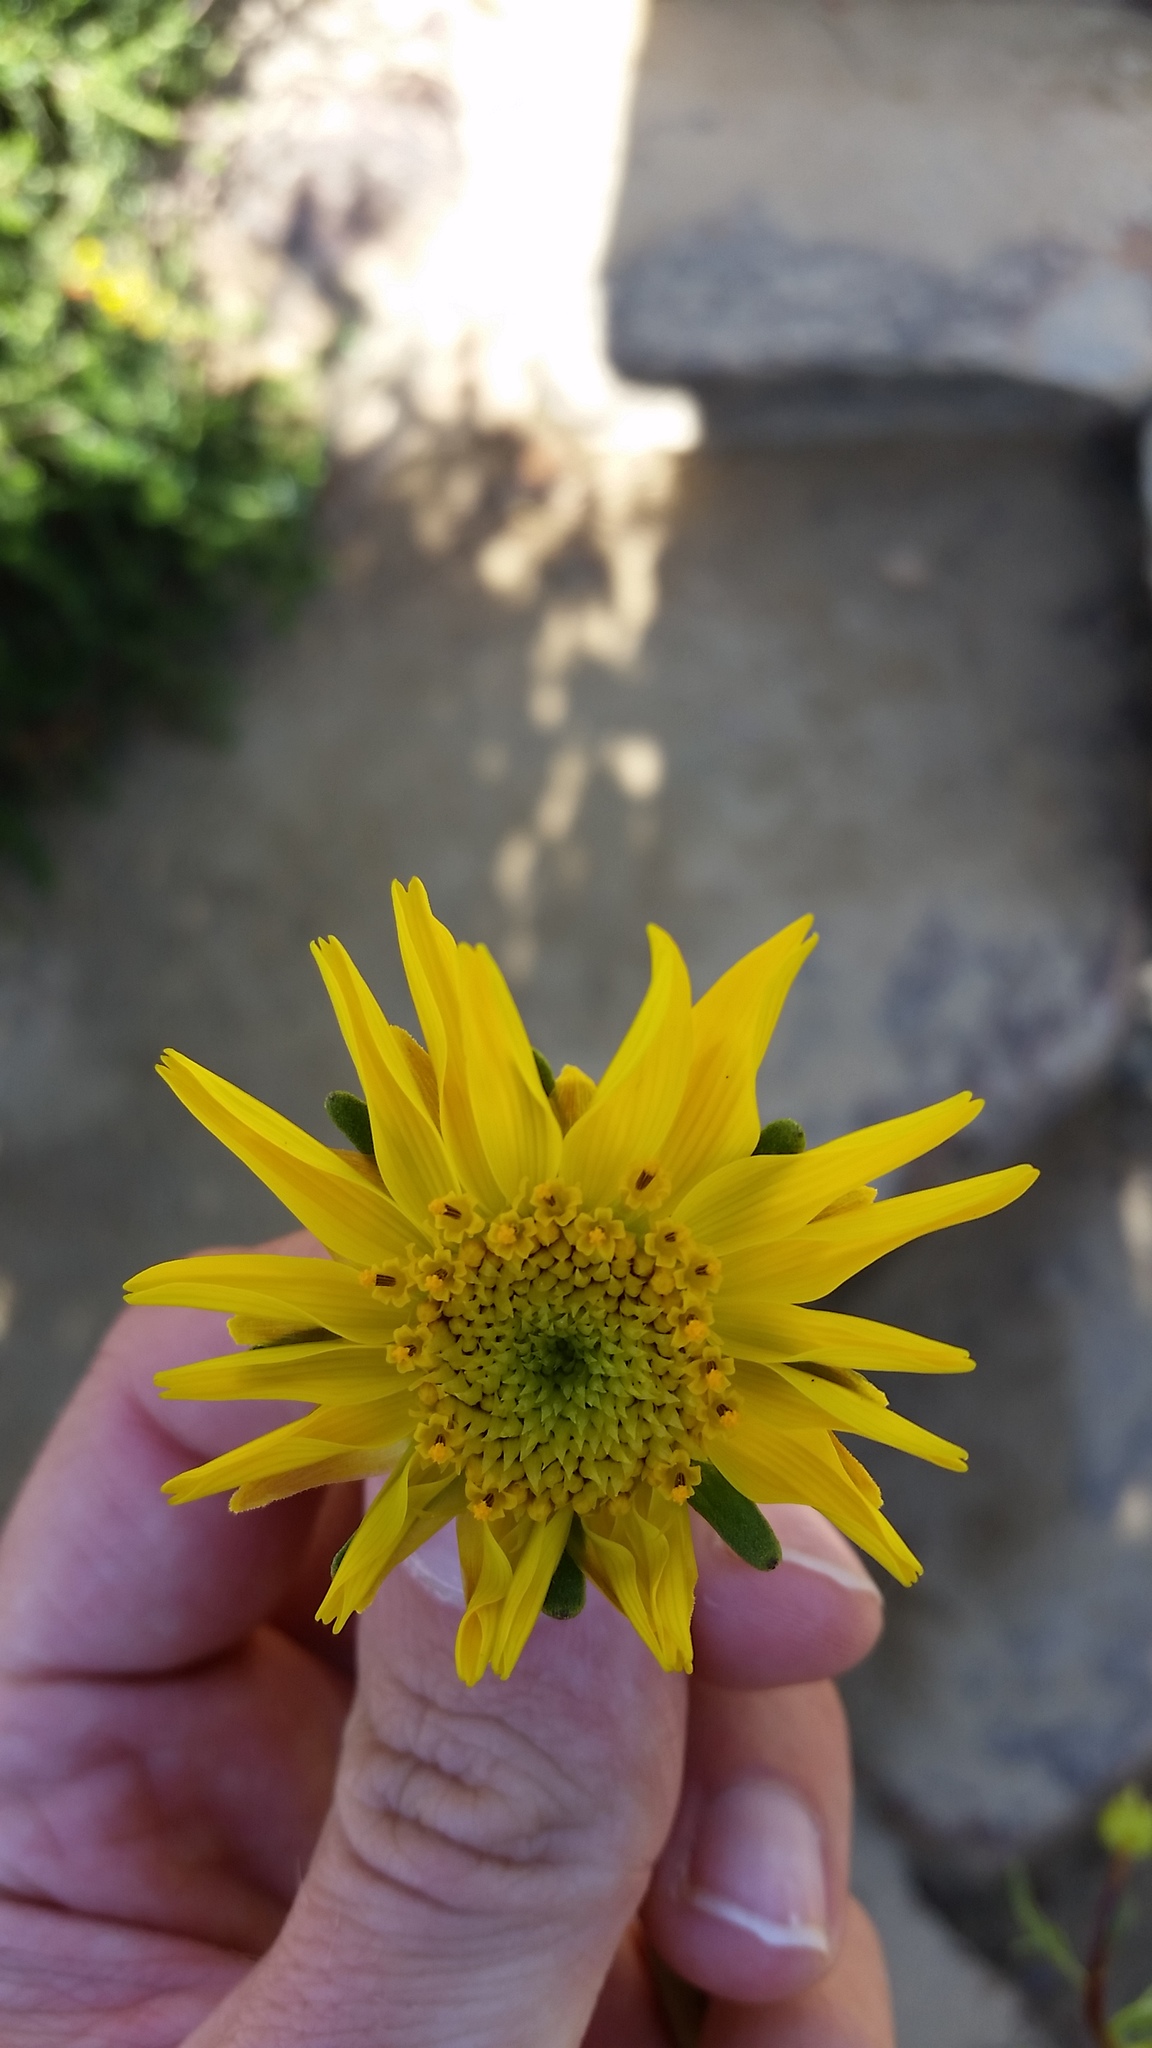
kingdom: Plantae
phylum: Tracheophyta
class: Magnoliopsida
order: Asterales
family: Asteraceae
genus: Coreopsis
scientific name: Coreopsis maritima
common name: Sea-dahlia
